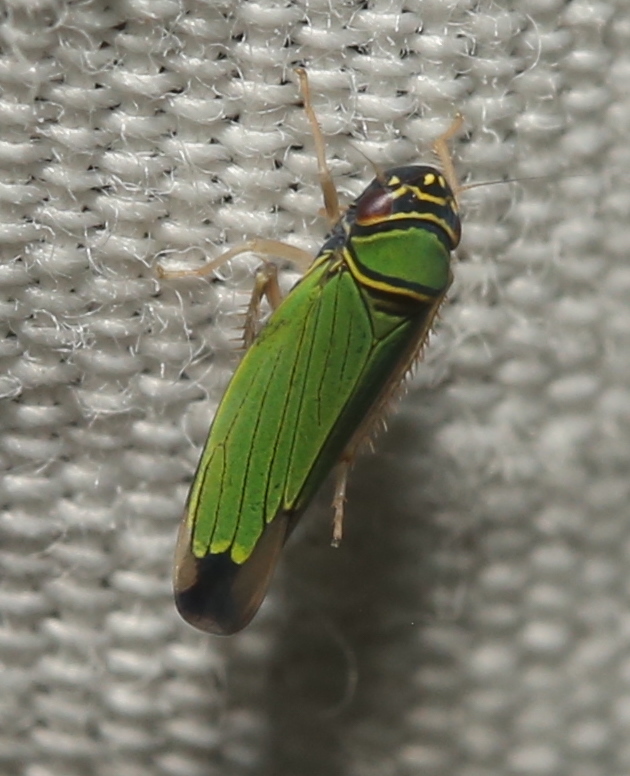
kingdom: Animalia
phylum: Arthropoda
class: Insecta
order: Hemiptera
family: Cicadellidae
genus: Tylozygus
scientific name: Tylozygus geometricus
